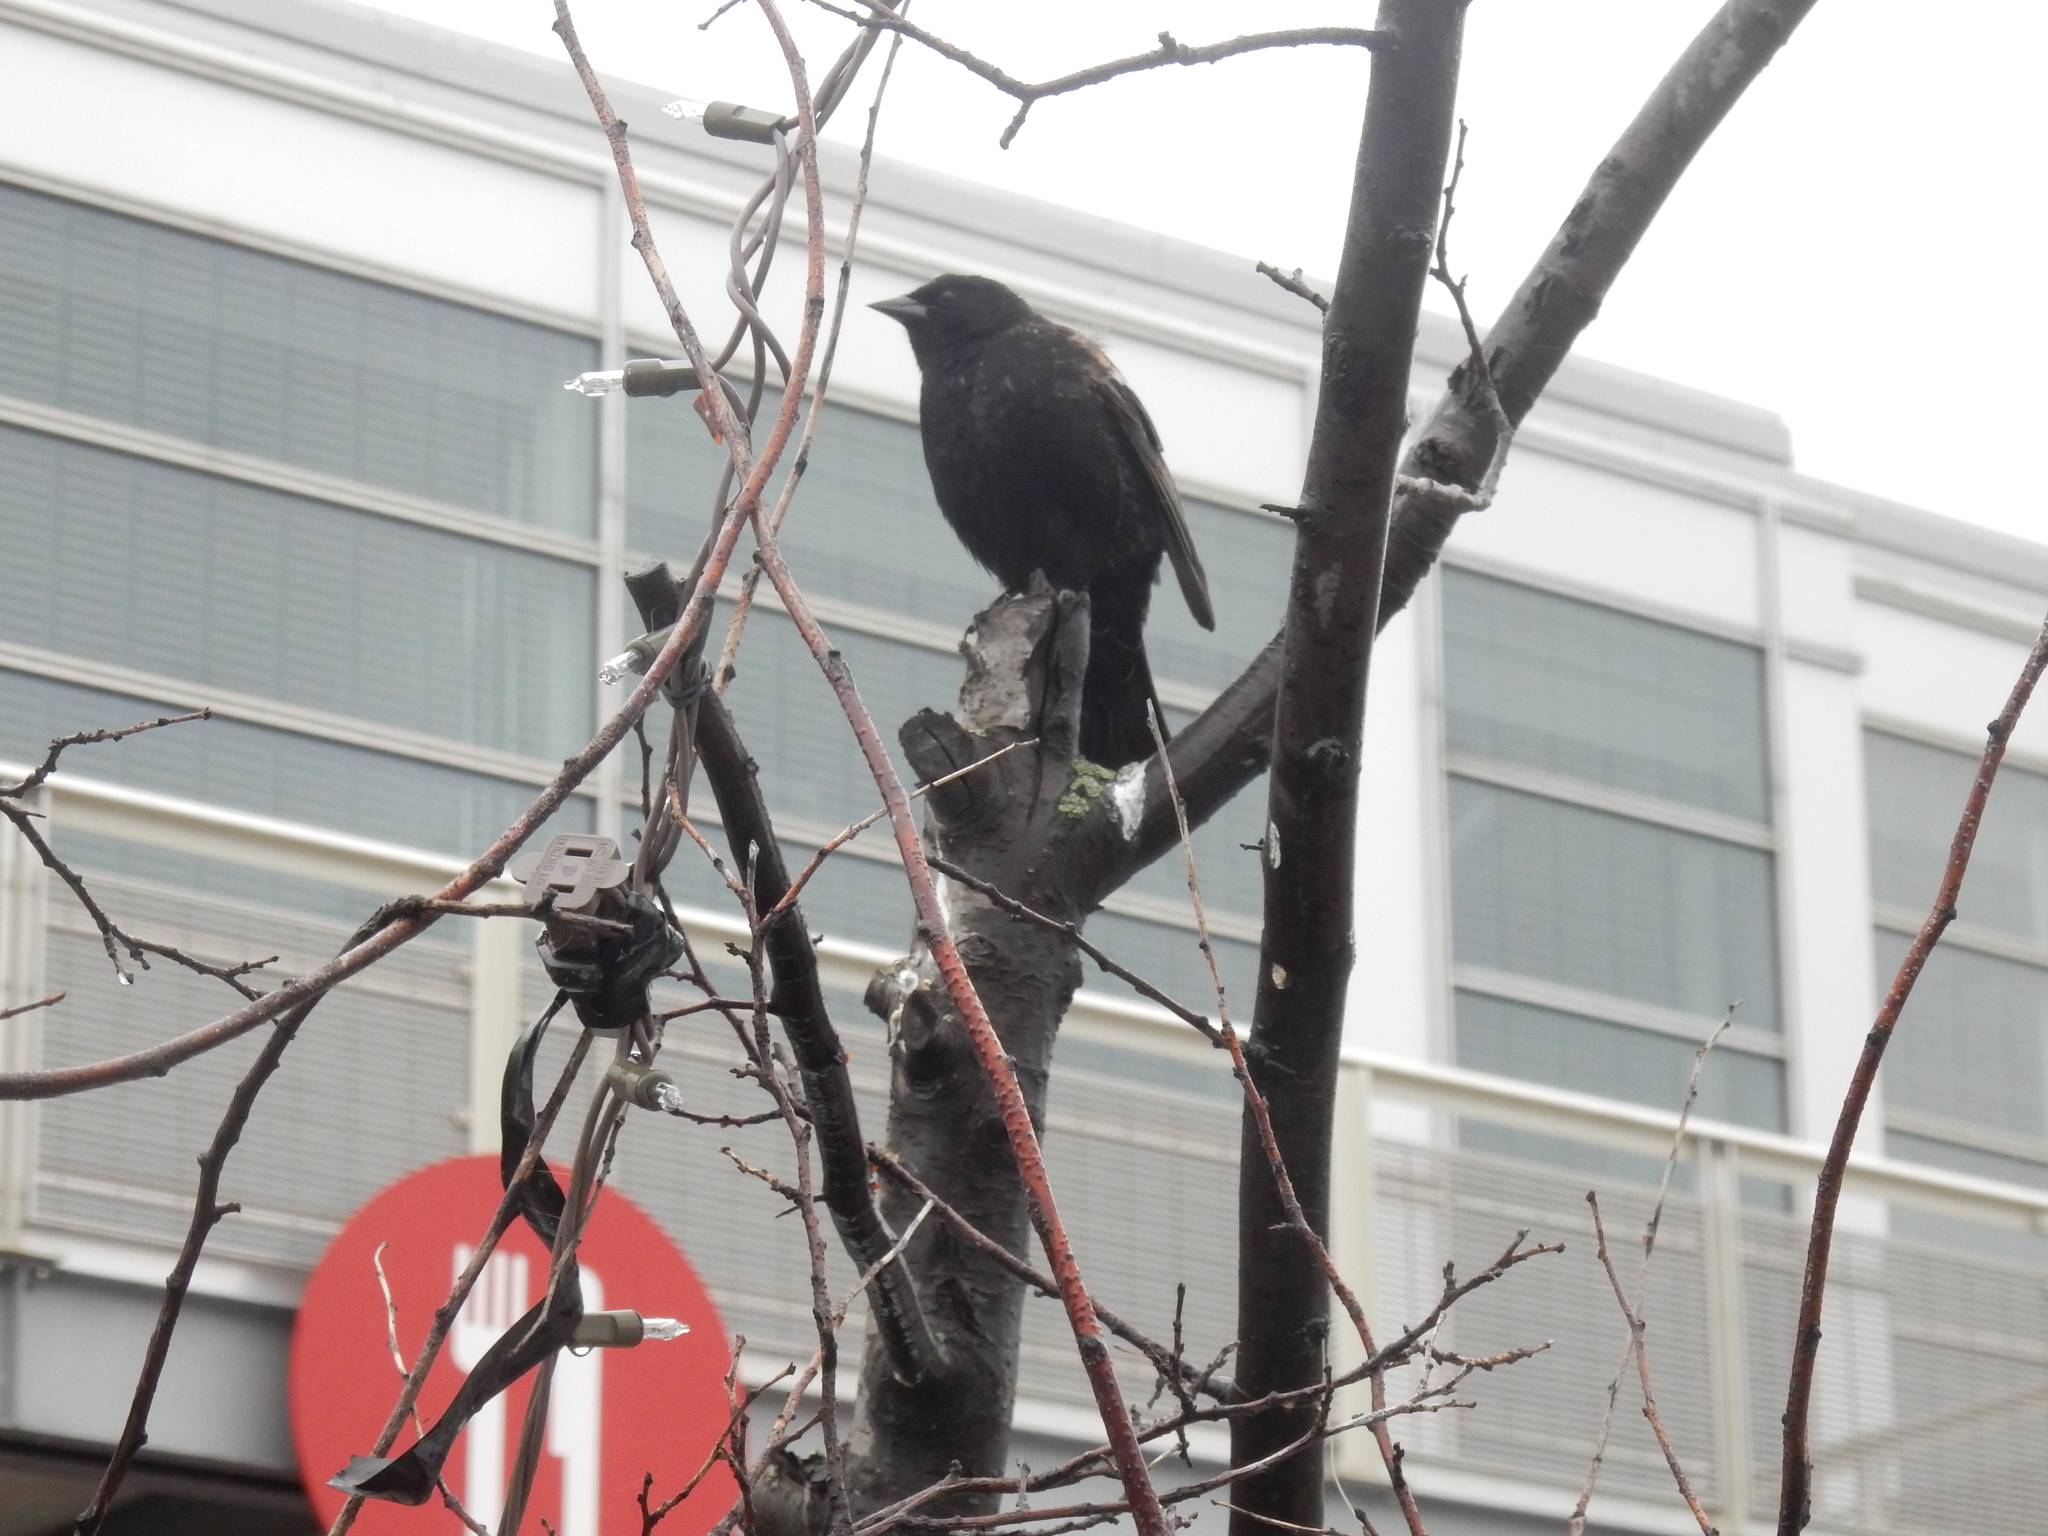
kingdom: Animalia
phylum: Chordata
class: Aves
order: Passeriformes
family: Icteridae
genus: Agelaius
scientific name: Agelaius phoeniceus
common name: Red-winged blackbird
